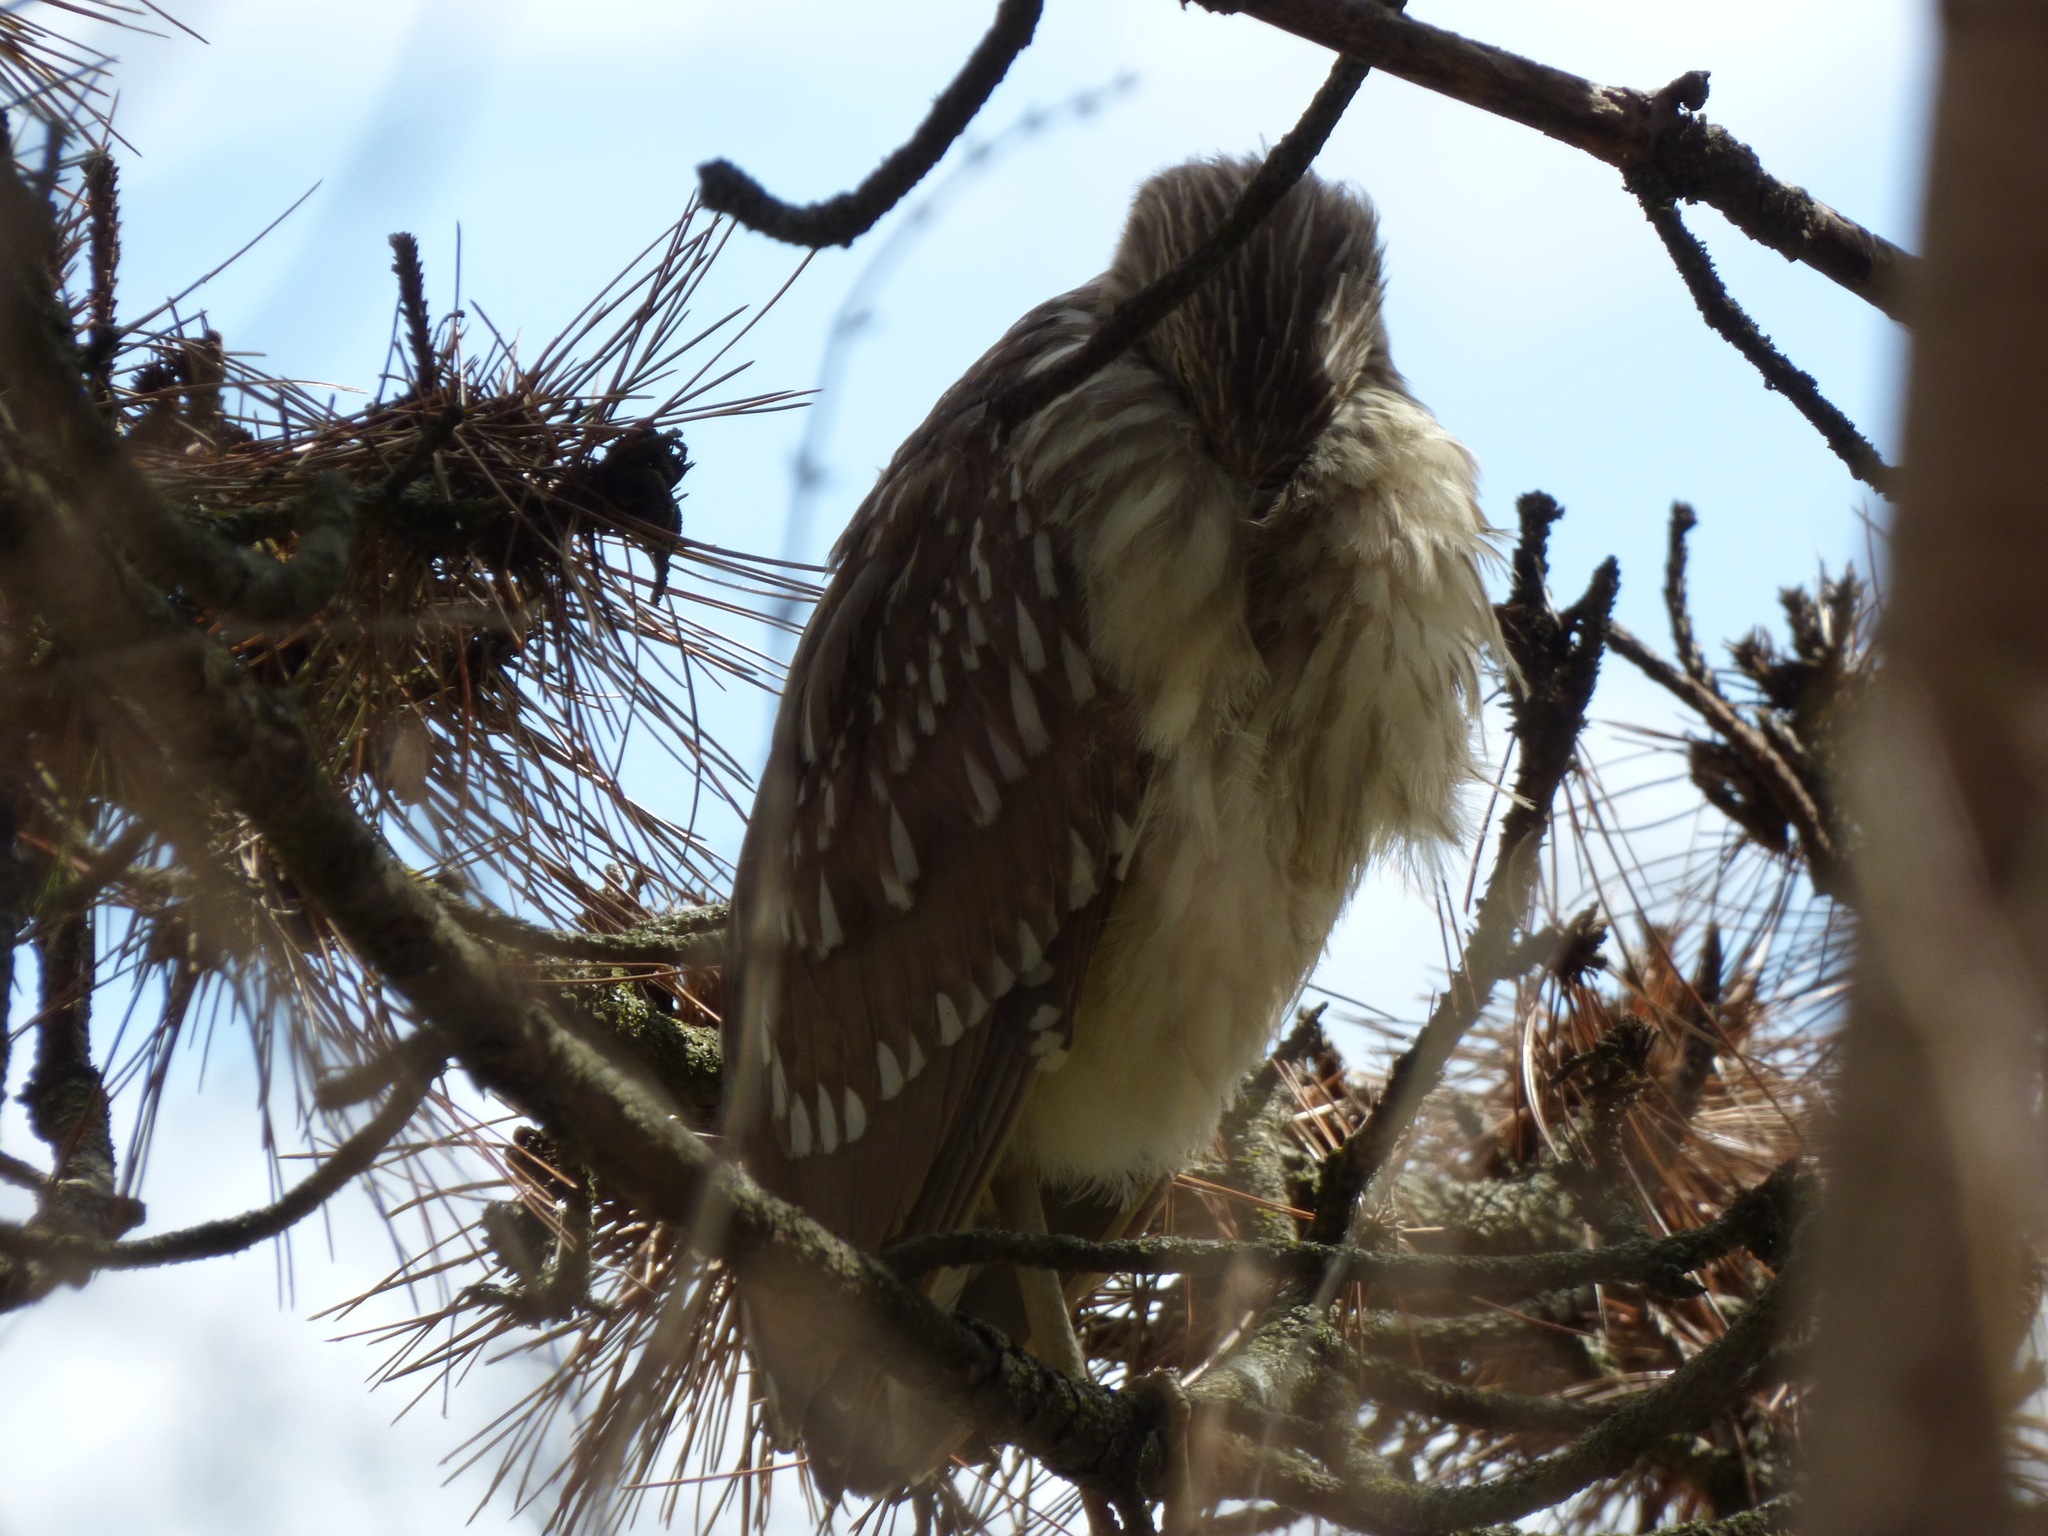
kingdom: Animalia
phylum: Chordata
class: Aves
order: Pelecaniformes
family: Ardeidae
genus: Nycticorax
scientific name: Nycticorax nycticorax
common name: Black-crowned night heron
